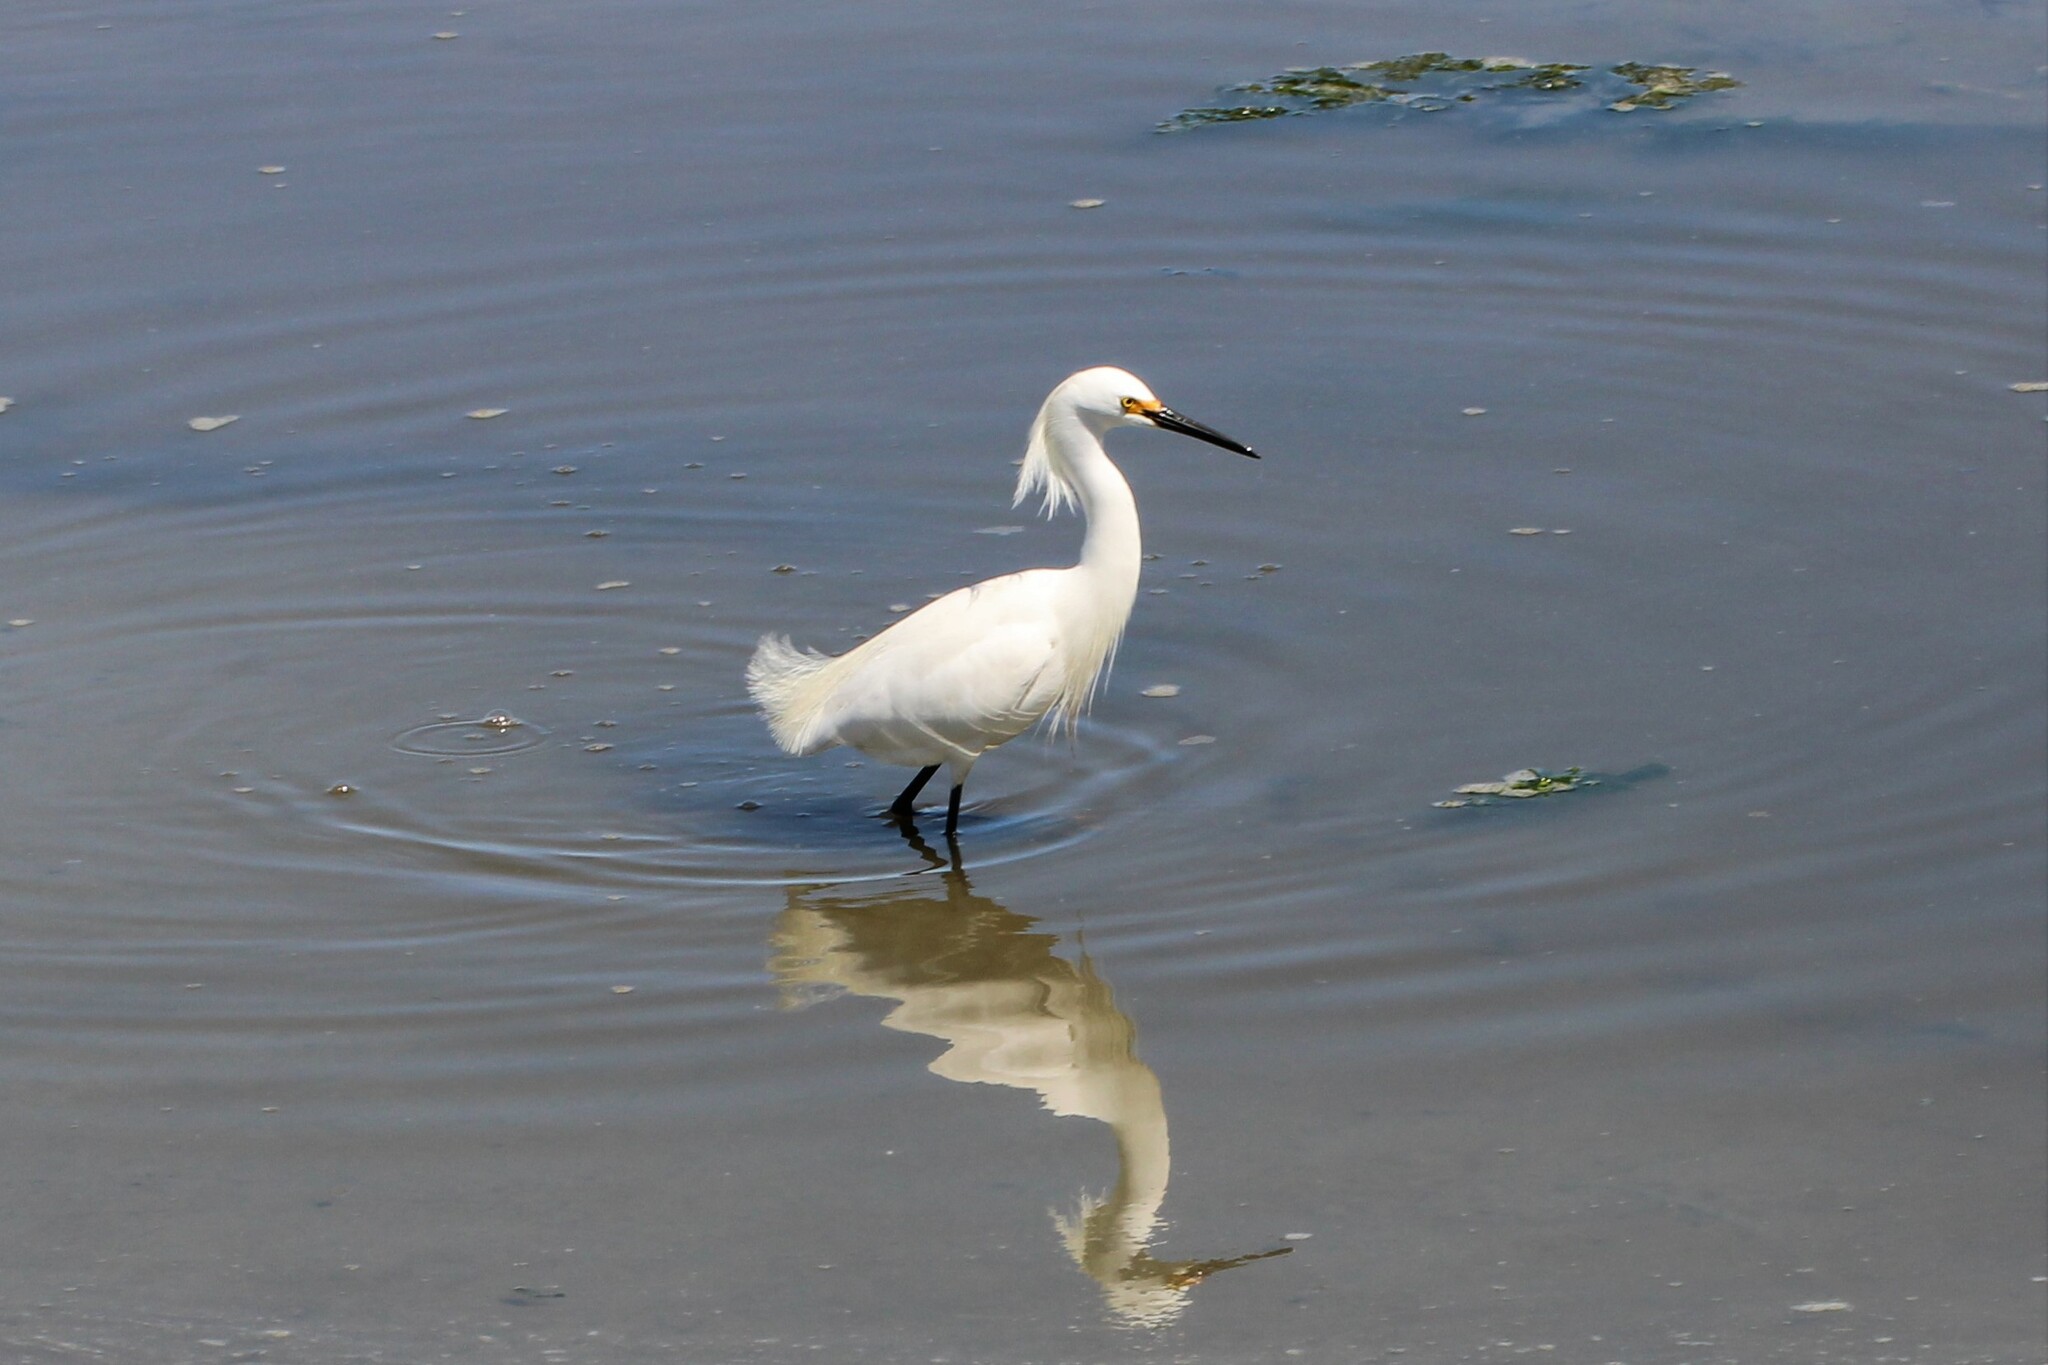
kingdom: Animalia
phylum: Chordata
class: Aves
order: Pelecaniformes
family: Ardeidae
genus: Egretta
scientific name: Egretta thula
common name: Snowy egret
